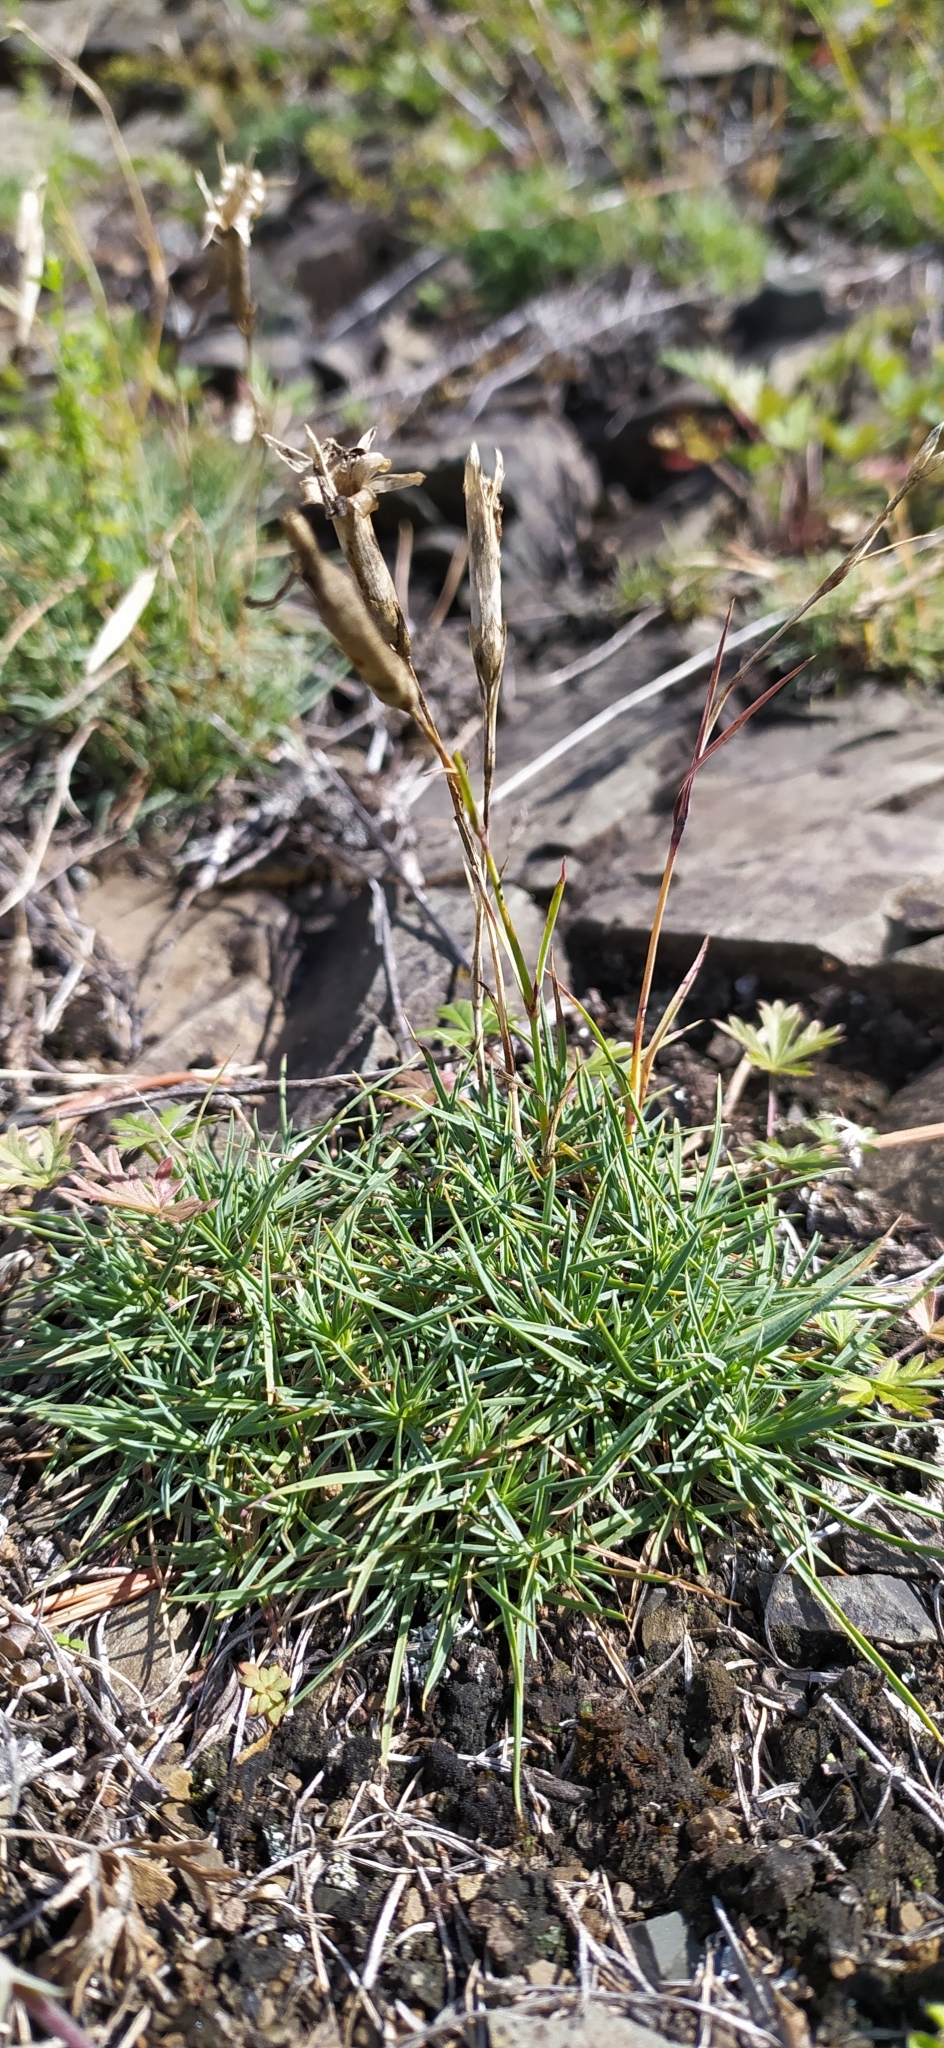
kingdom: Plantae
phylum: Tracheophyta
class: Magnoliopsida
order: Caryophyllales
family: Caryophyllaceae
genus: Dianthus
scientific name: Dianthus acicularis
